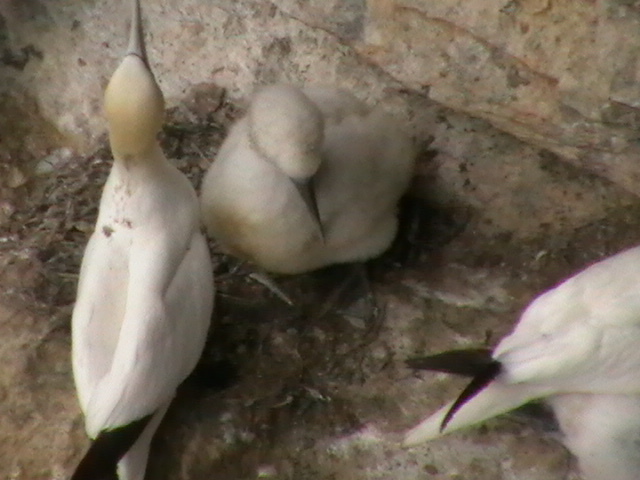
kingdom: Animalia
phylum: Chordata
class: Aves
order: Suliformes
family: Sulidae
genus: Morus
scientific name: Morus bassanus
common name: Northern gannet
